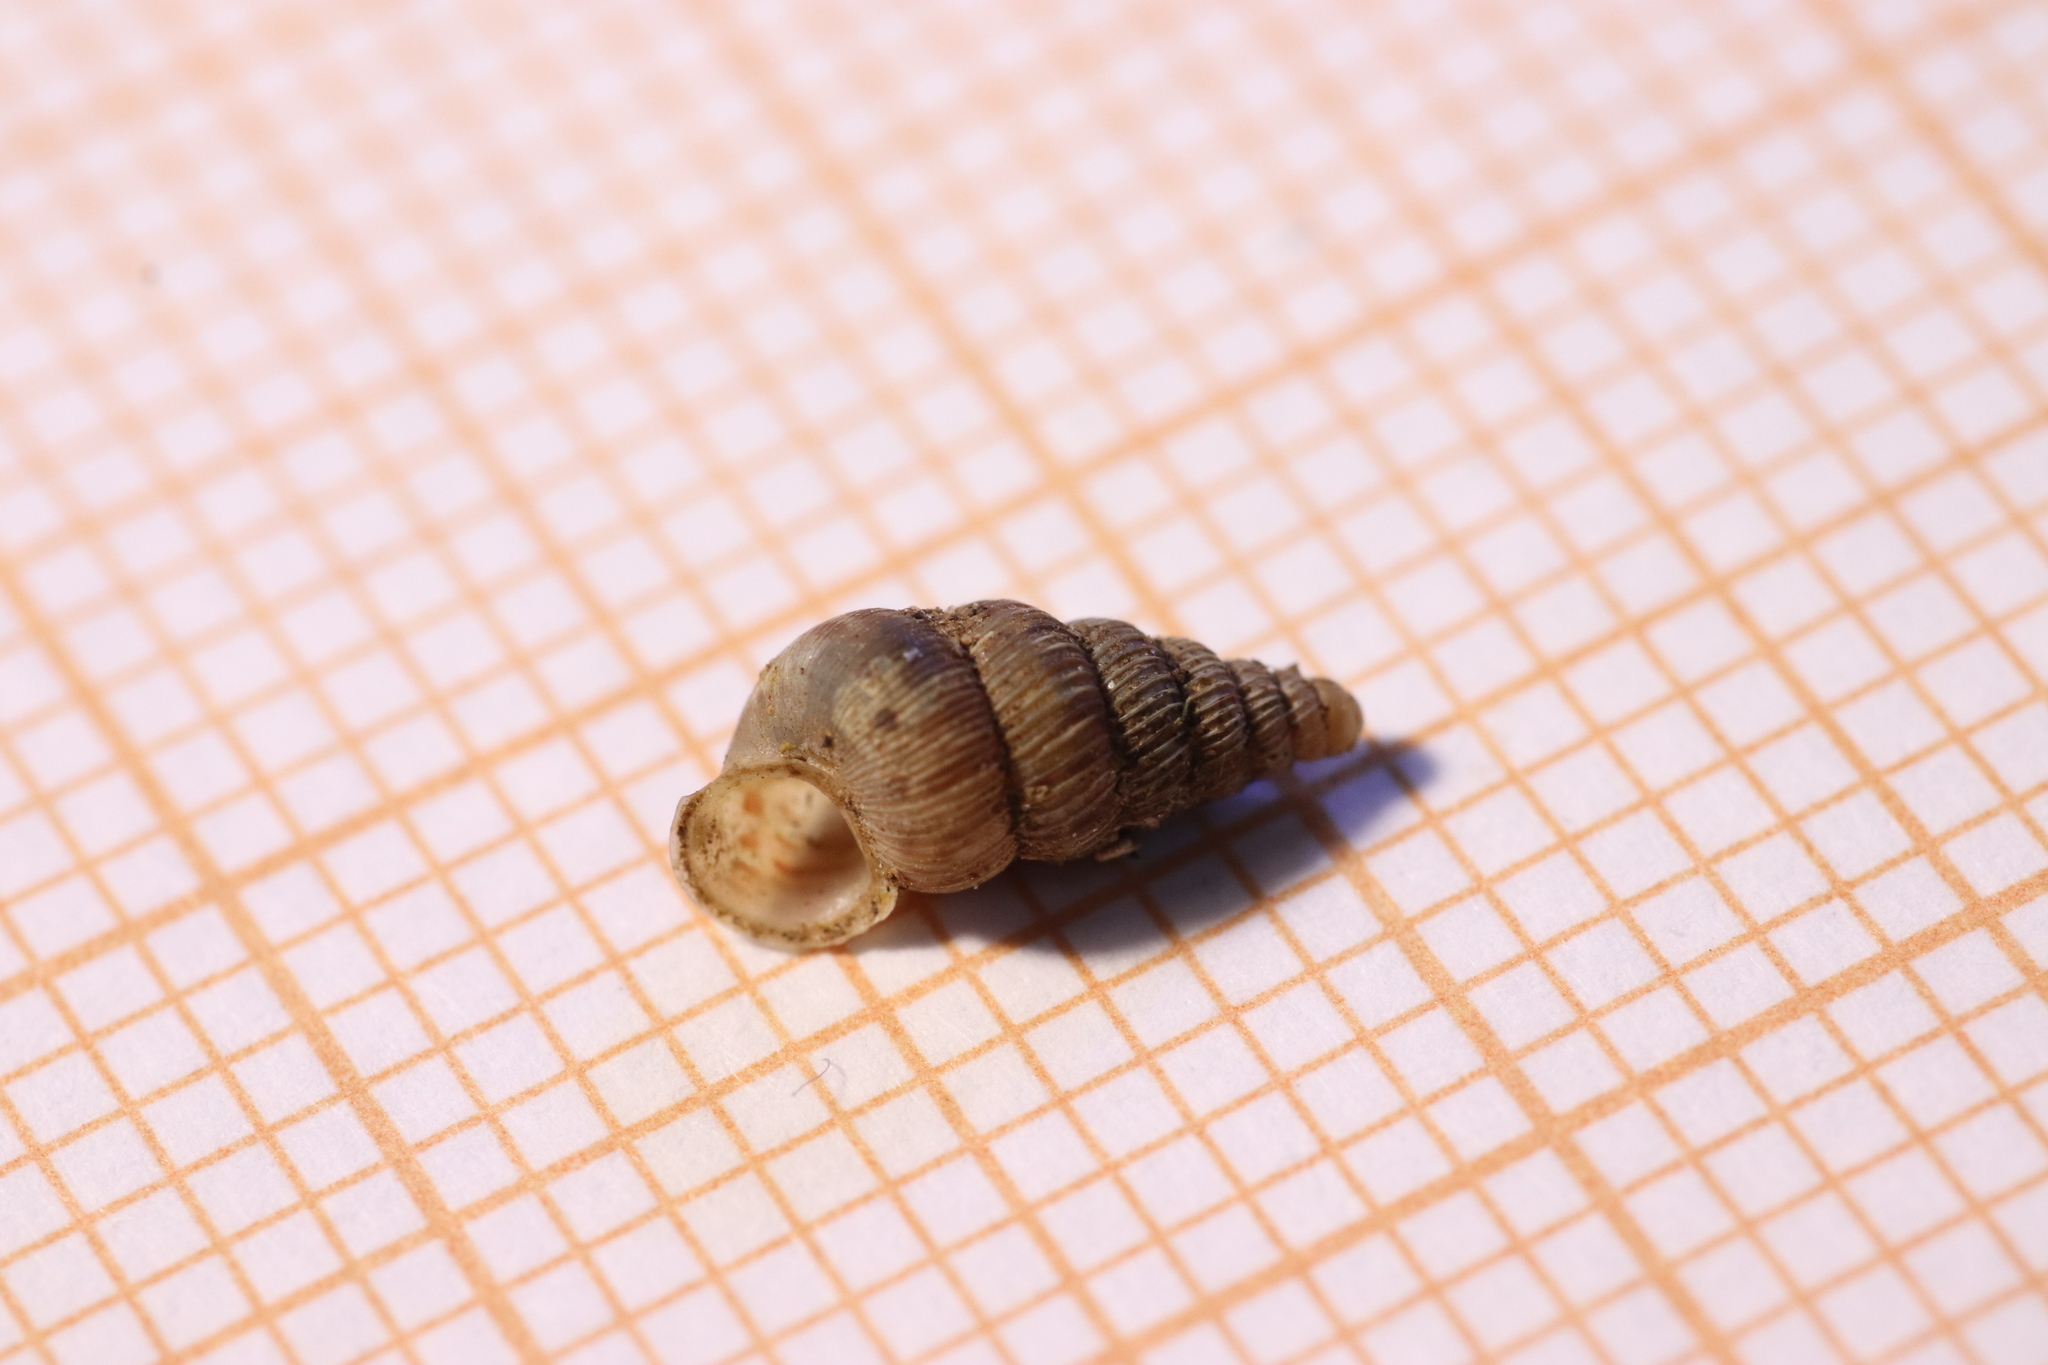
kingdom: Animalia
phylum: Mollusca
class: Gastropoda
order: Architaenioglossa
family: Cochlostomatidae
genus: Cochlostoma
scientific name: Cochlostoma septemspirale
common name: Seven-whorl snail
